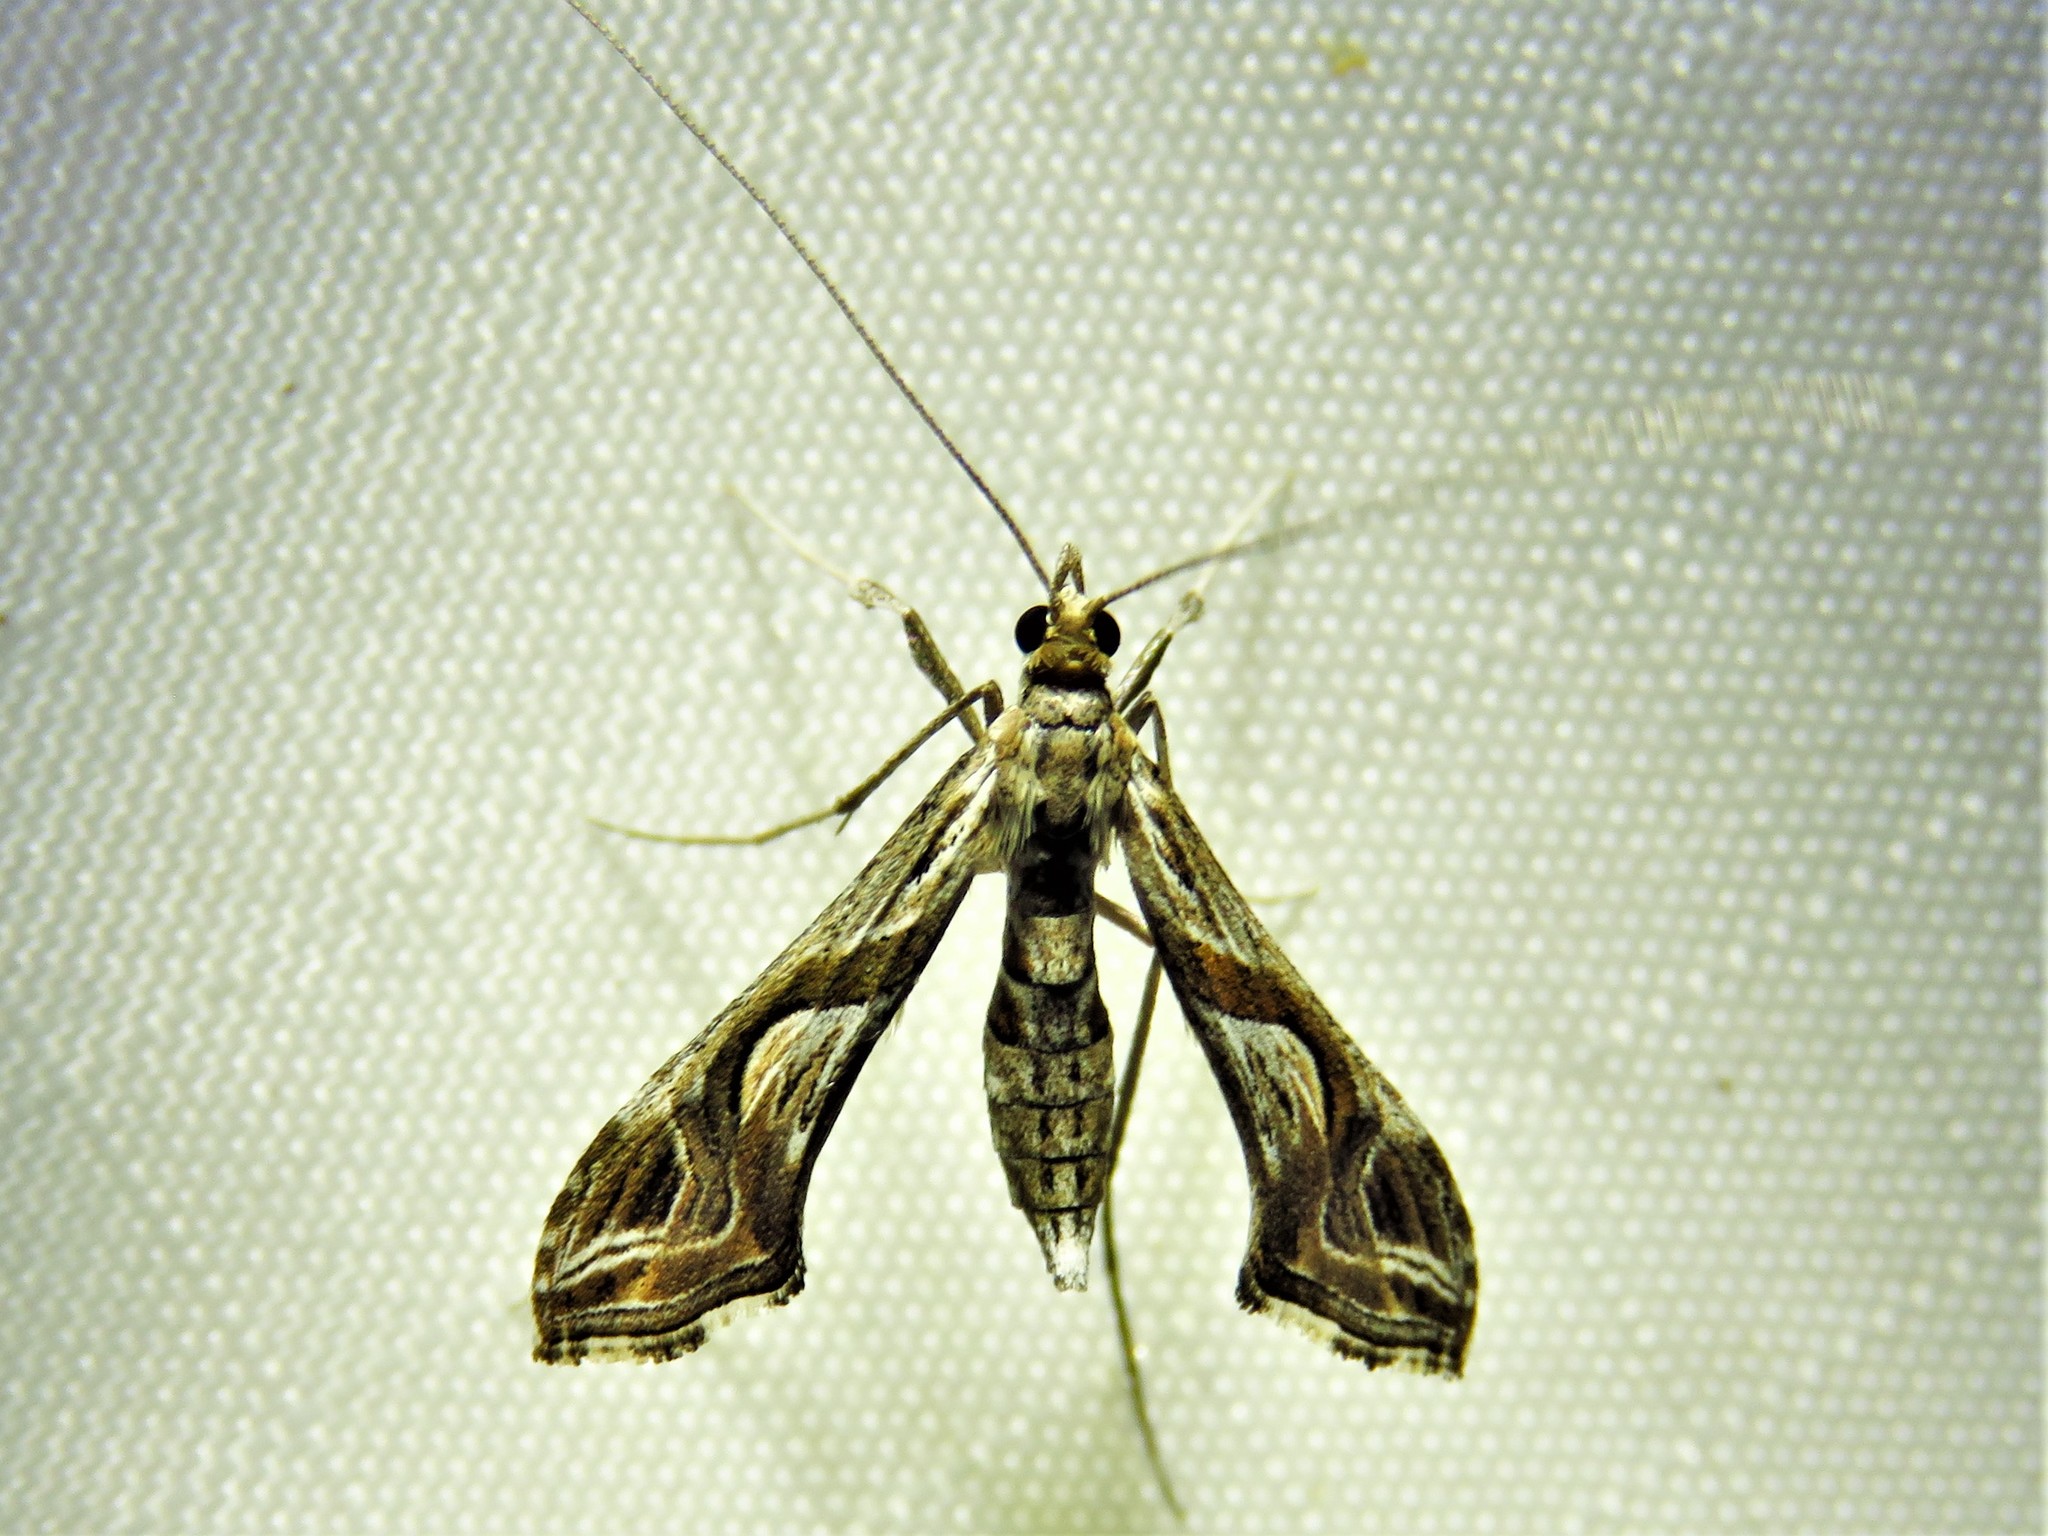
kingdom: Animalia
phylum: Arthropoda
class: Insecta
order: Lepidoptera
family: Crambidae
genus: Lineodes
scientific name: Lineodes integra
